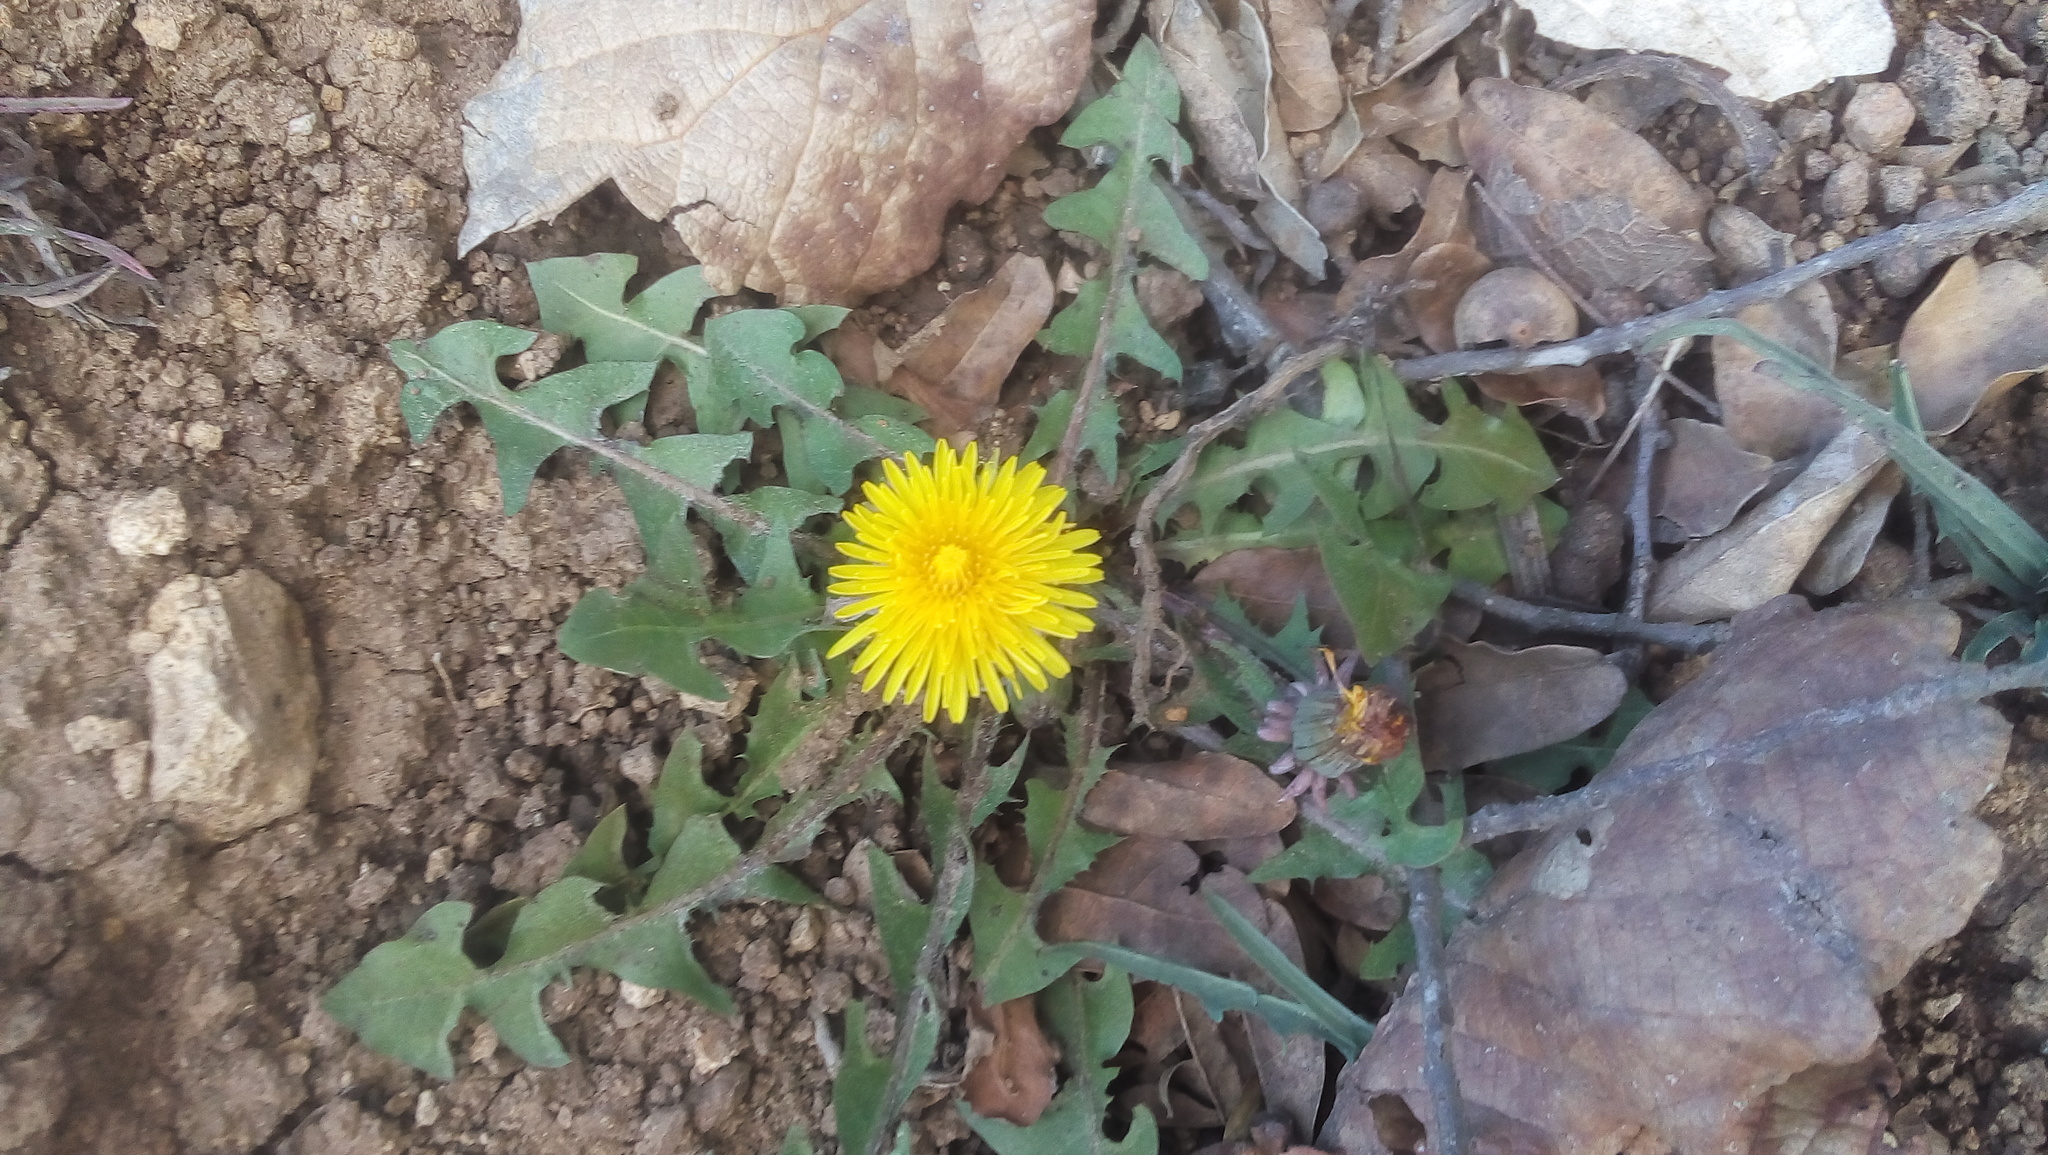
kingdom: Plantae
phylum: Tracheophyta
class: Magnoliopsida
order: Asterales
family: Asteraceae
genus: Taraxacum
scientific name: Taraxacum officinale
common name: Common dandelion
